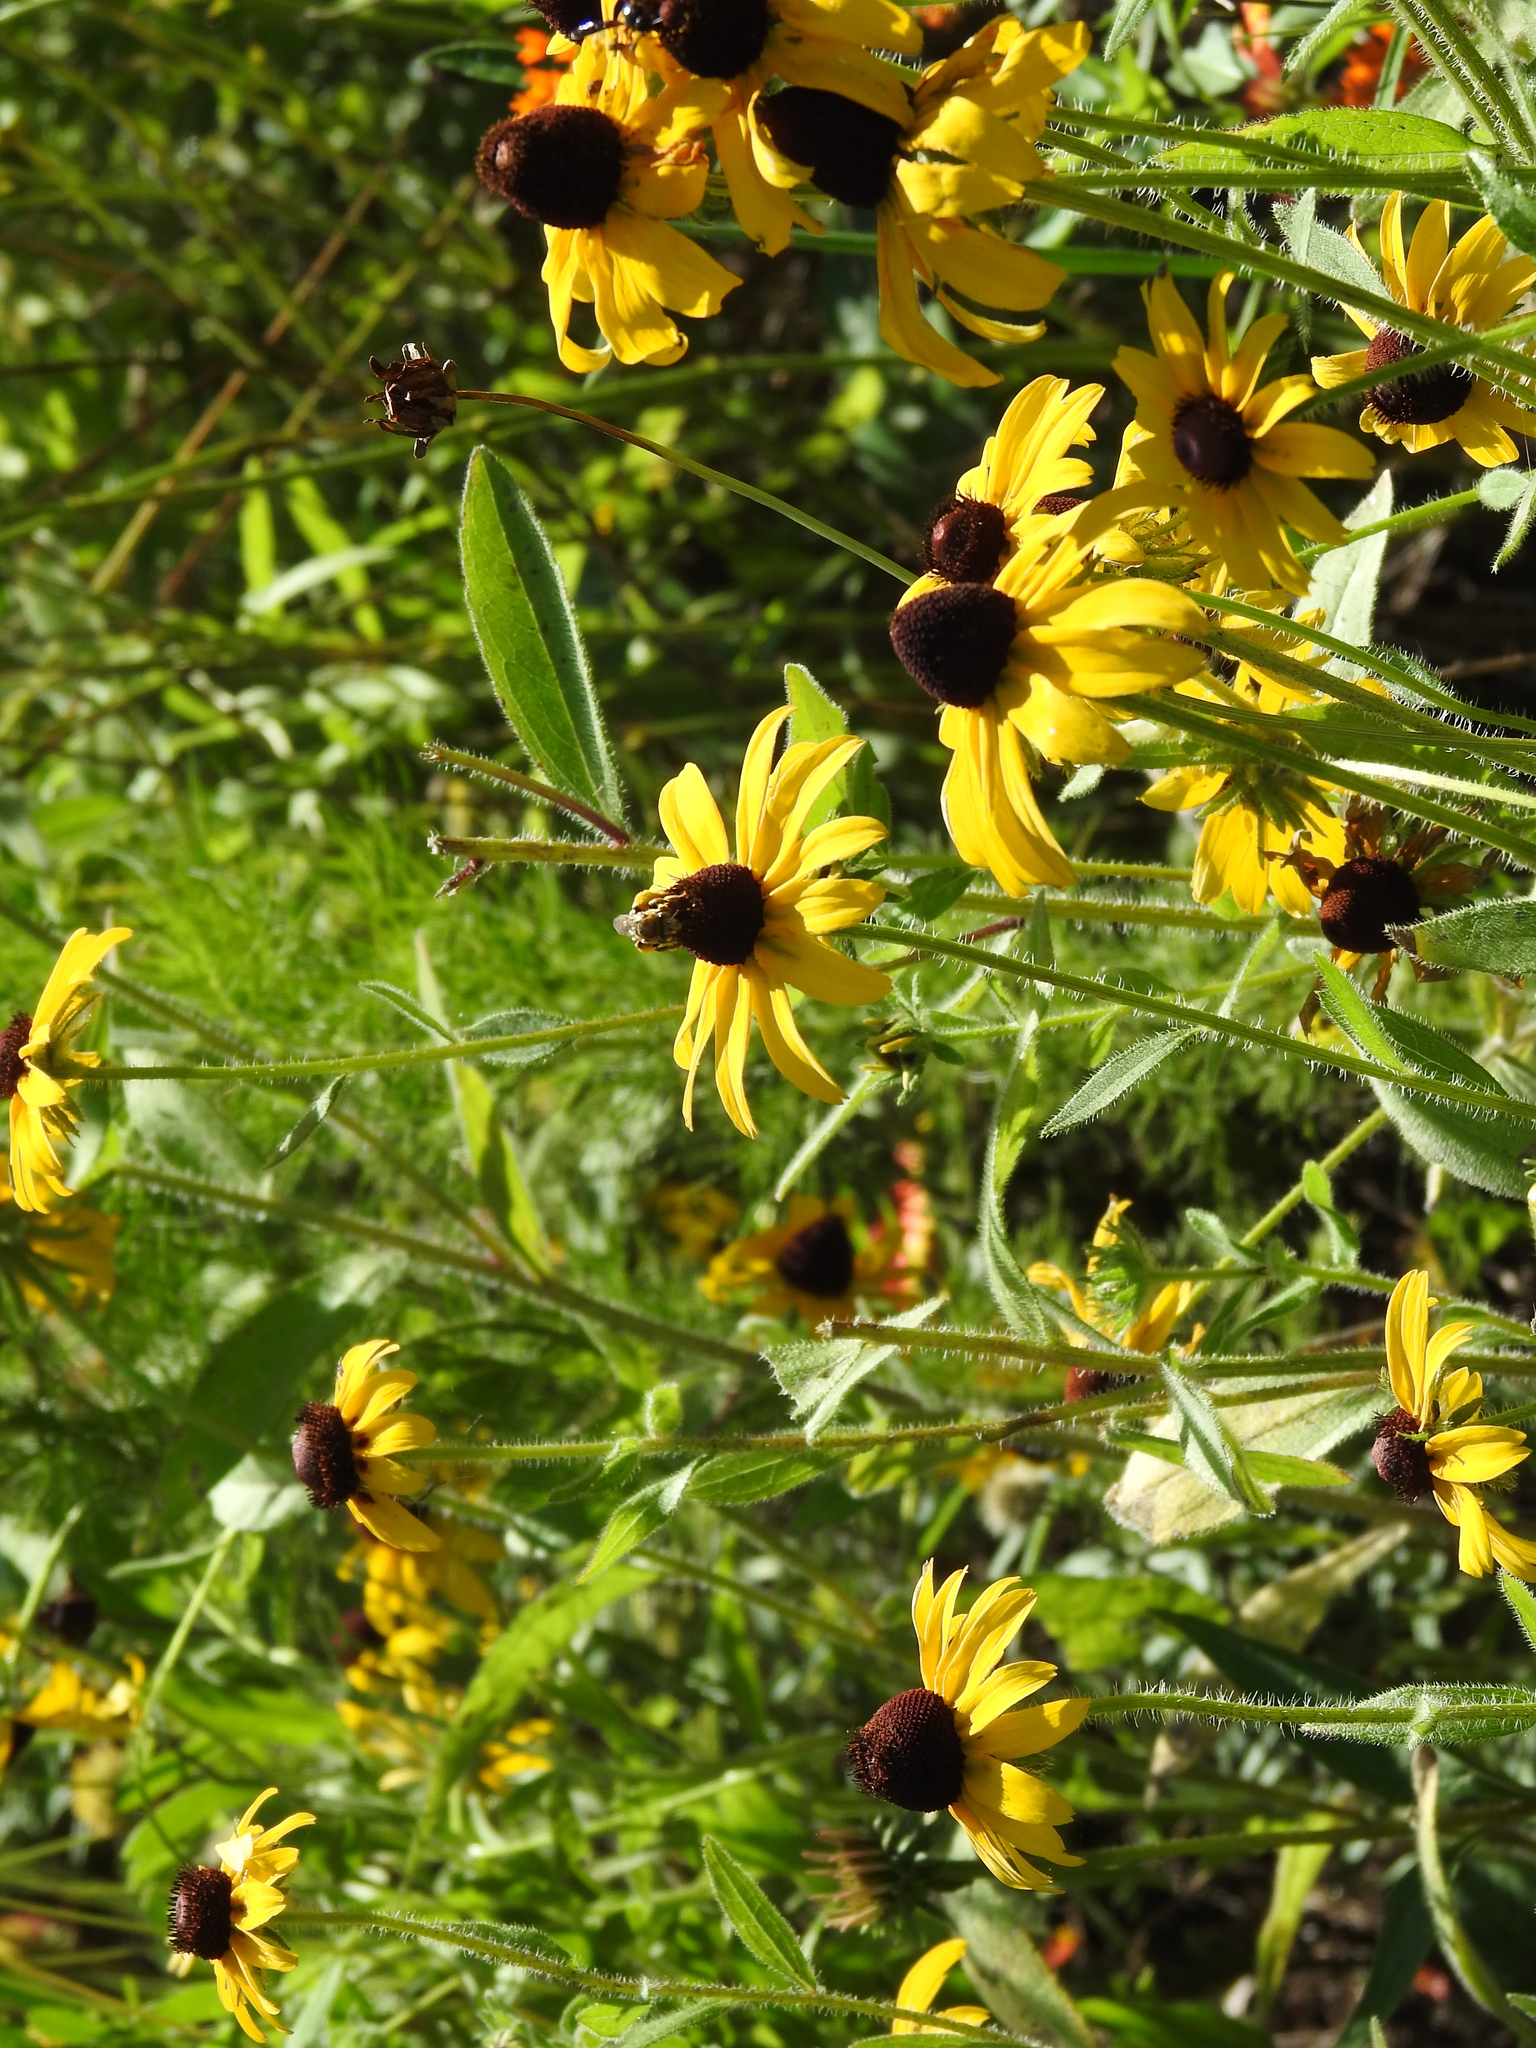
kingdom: Plantae
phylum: Tracheophyta
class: Magnoliopsida
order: Asterales
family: Asteraceae
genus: Rudbeckia
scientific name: Rudbeckia hirta
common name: Black-eyed-susan
